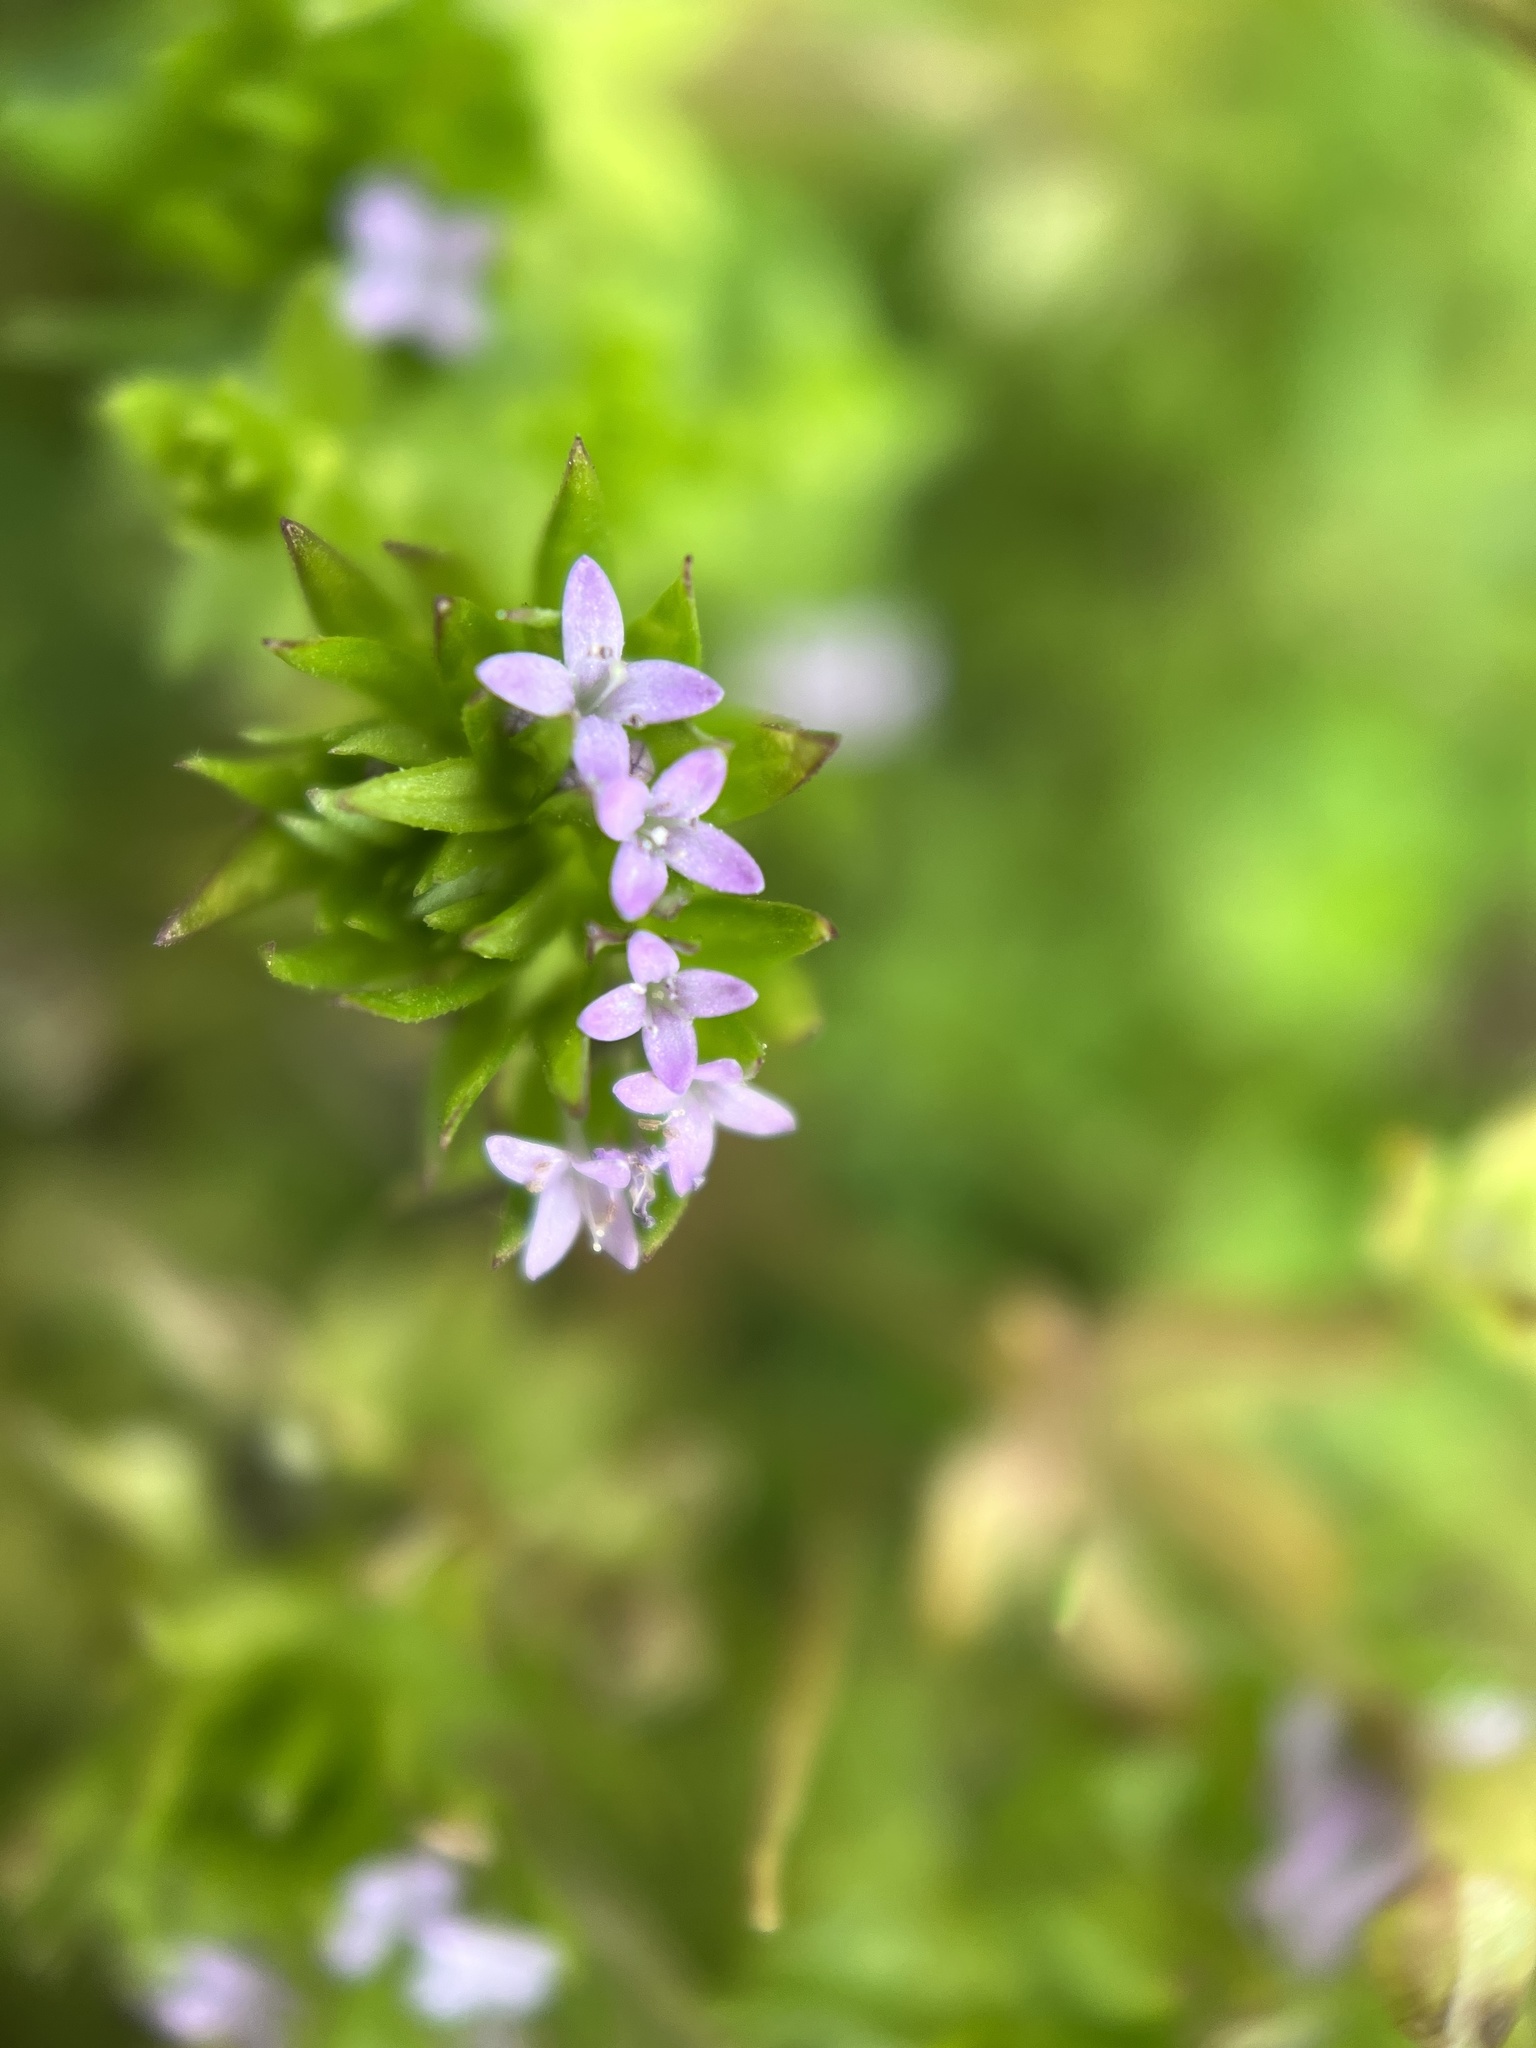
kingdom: Plantae
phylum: Tracheophyta
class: Magnoliopsida
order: Gentianales
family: Rubiaceae
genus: Sherardia
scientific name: Sherardia arvensis
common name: Field madder
